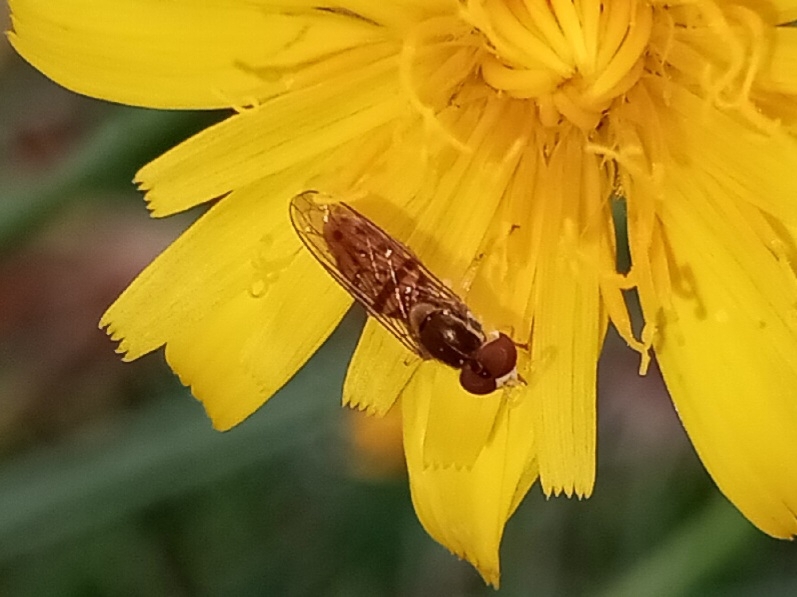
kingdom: Animalia
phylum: Arthropoda
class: Insecta
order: Diptera
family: Syrphidae
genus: Toxomerus
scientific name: Toxomerus marginatus
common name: Syrphid fly
